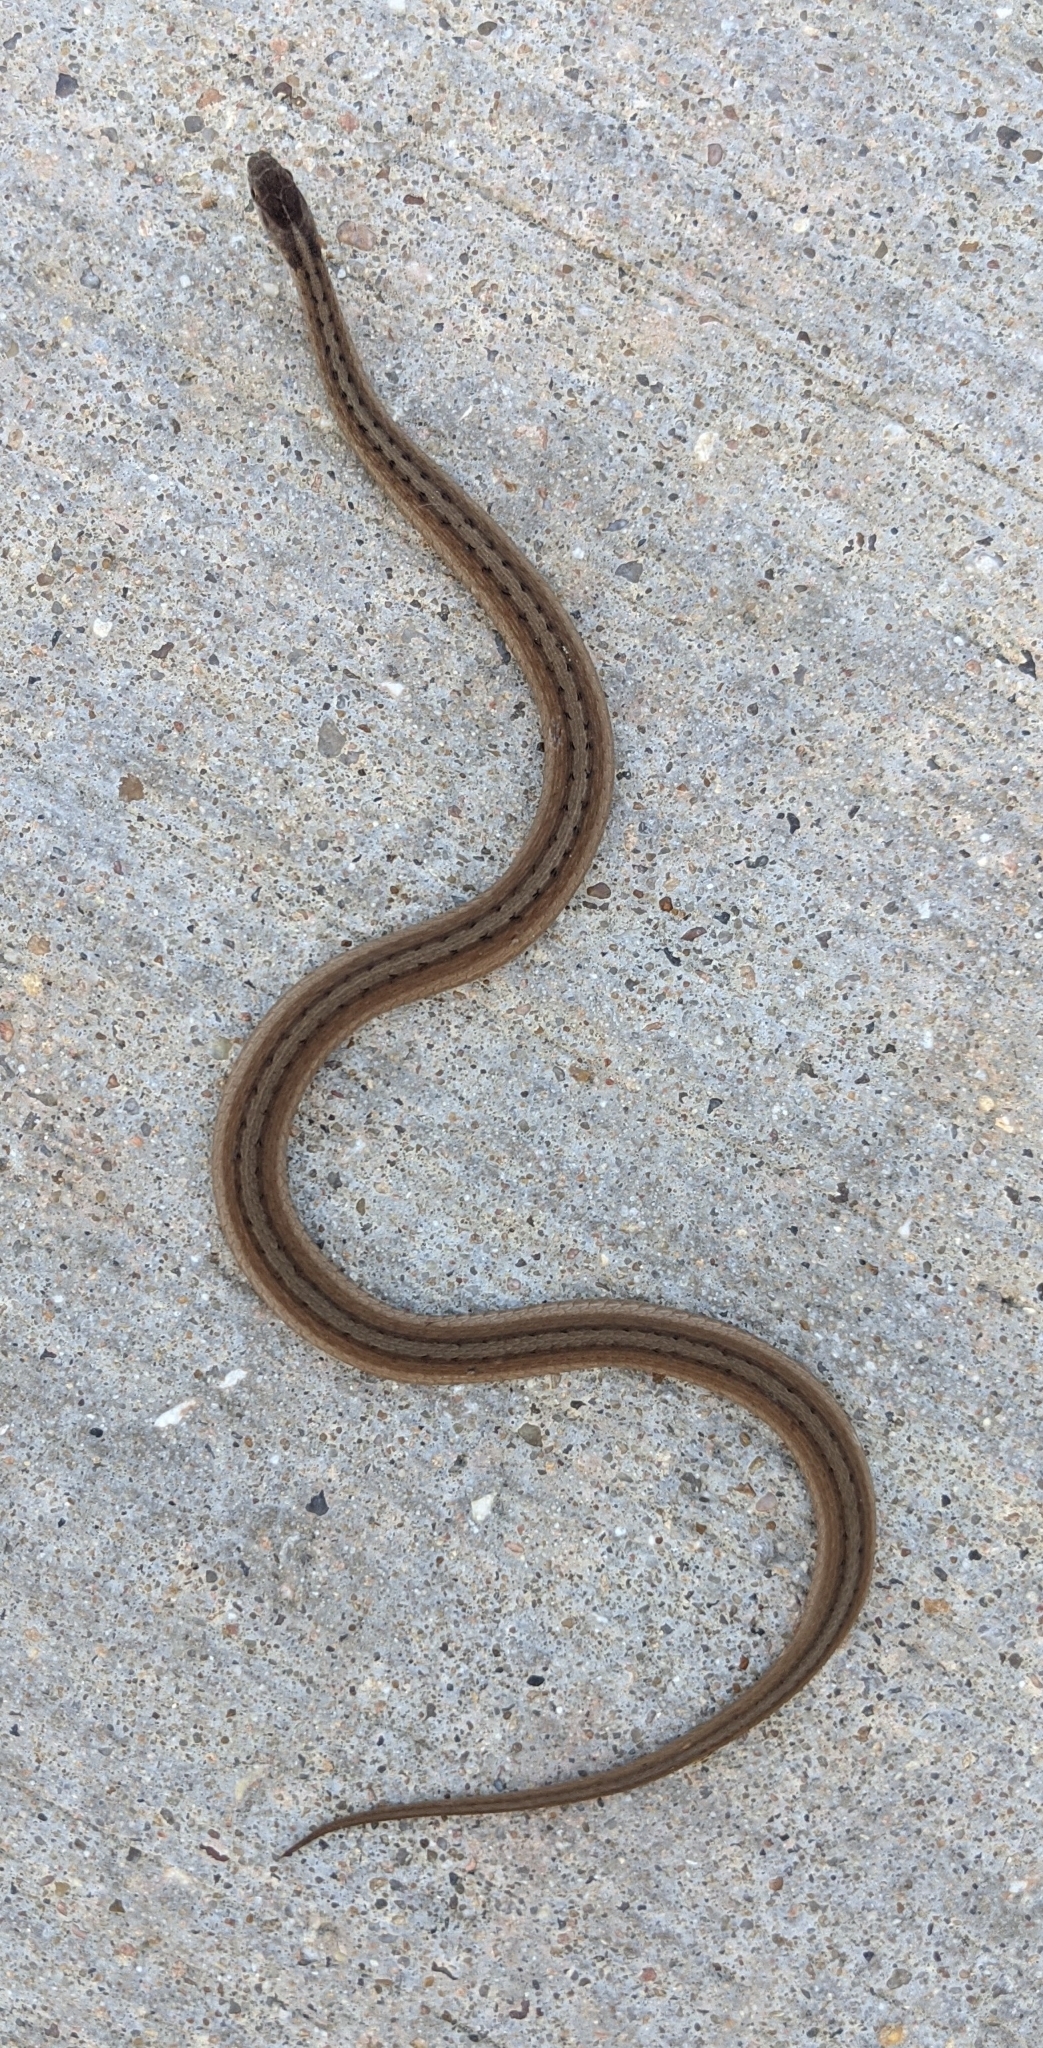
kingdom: Animalia
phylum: Chordata
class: Squamata
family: Colubridae
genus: Storeria
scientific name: Storeria dekayi
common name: (dekay’s) brown snake
